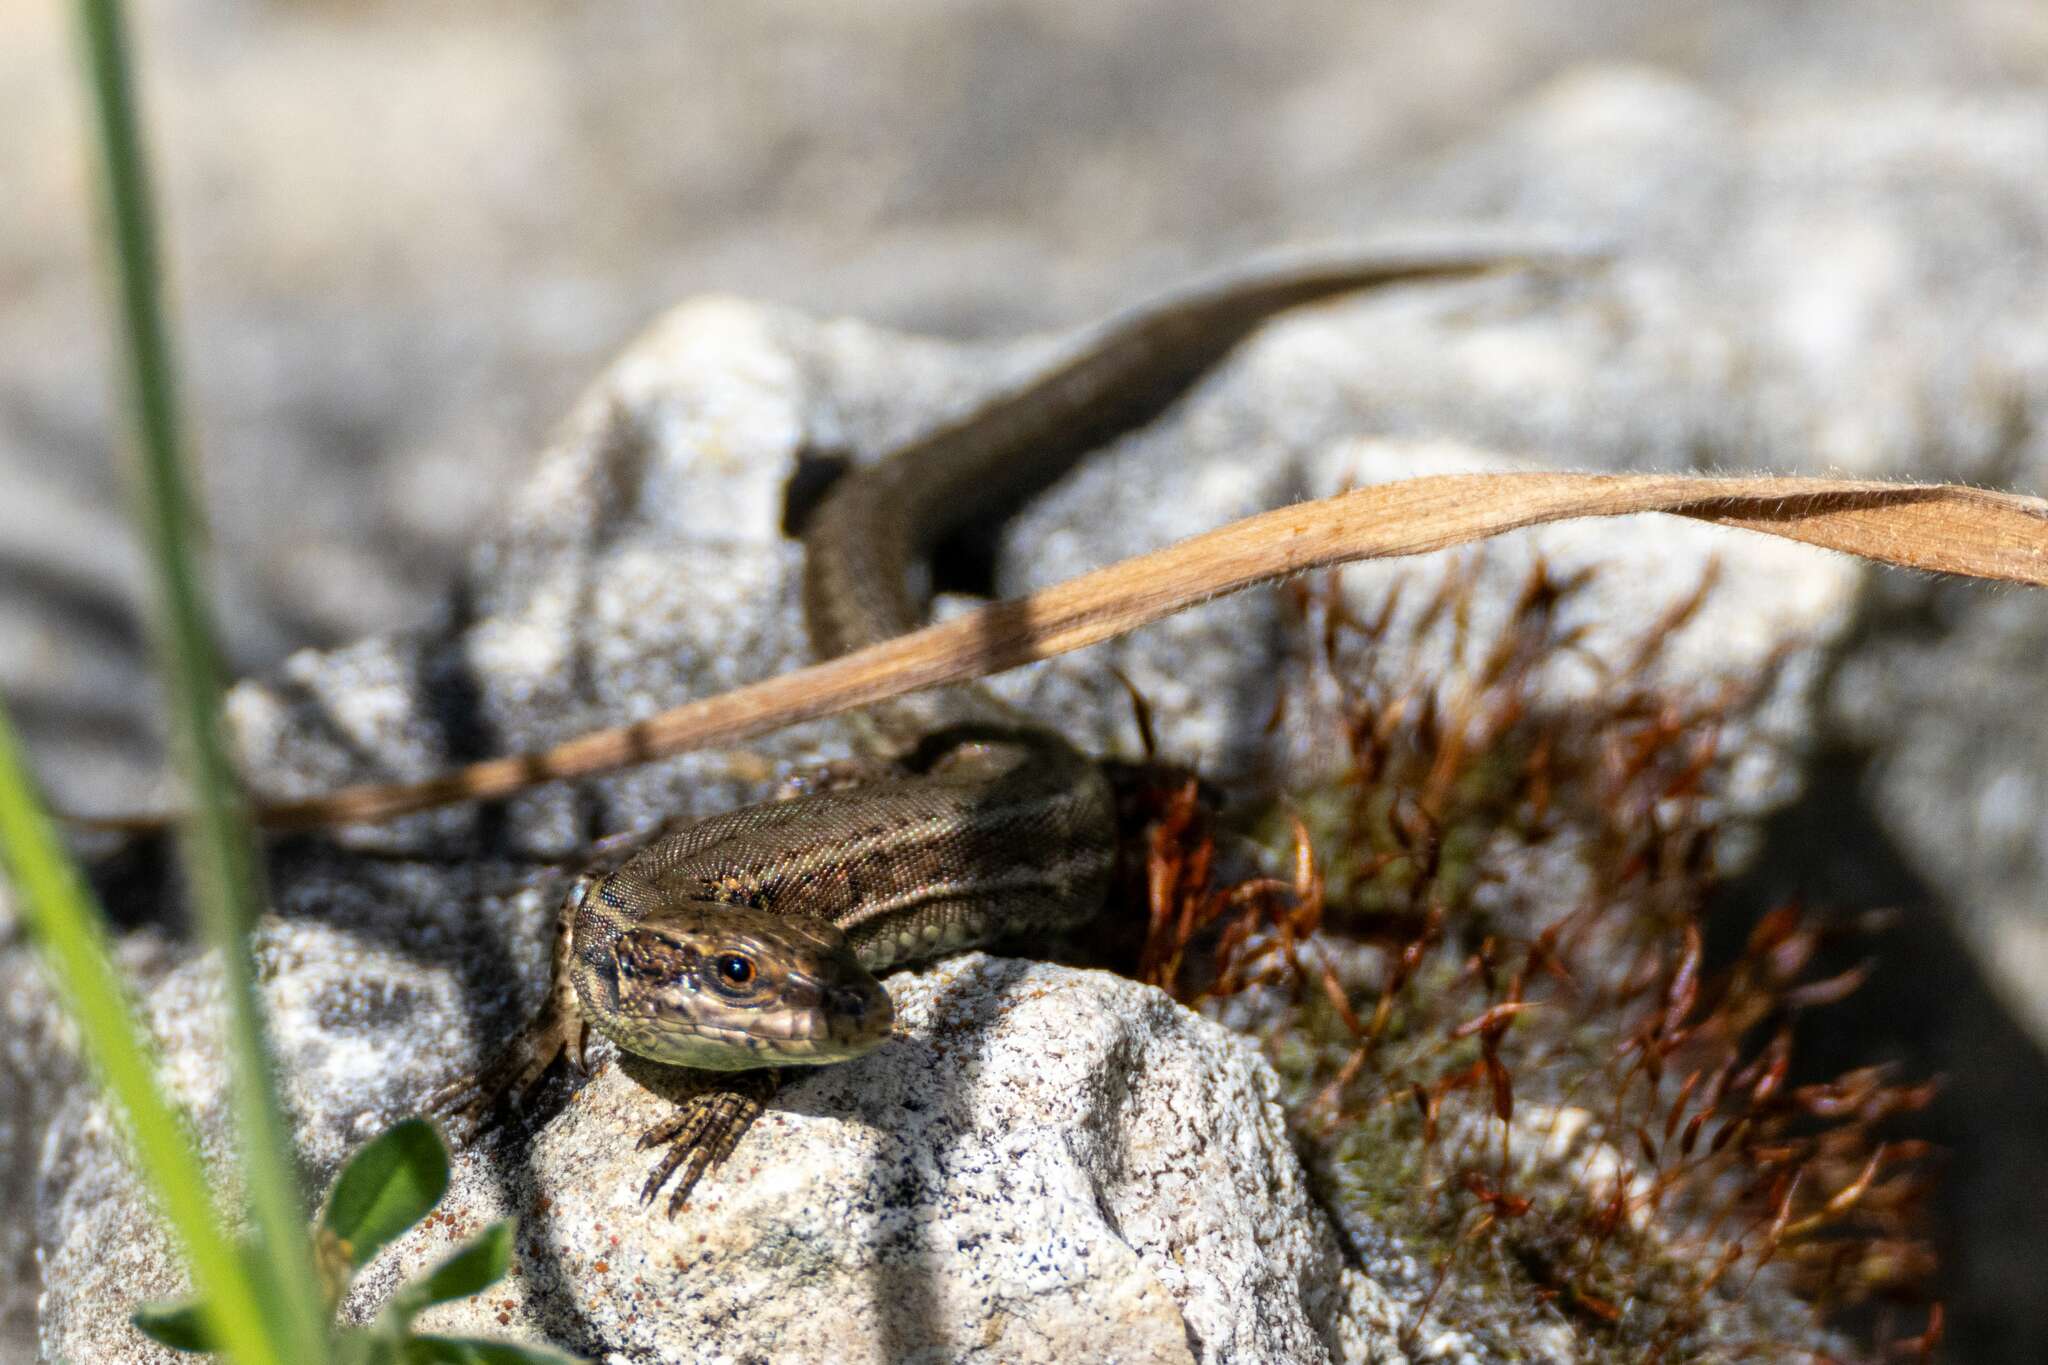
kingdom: Animalia
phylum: Chordata
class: Squamata
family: Lacertidae
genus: Podarcis
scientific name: Podarcis muralis
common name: Common wall lizard
